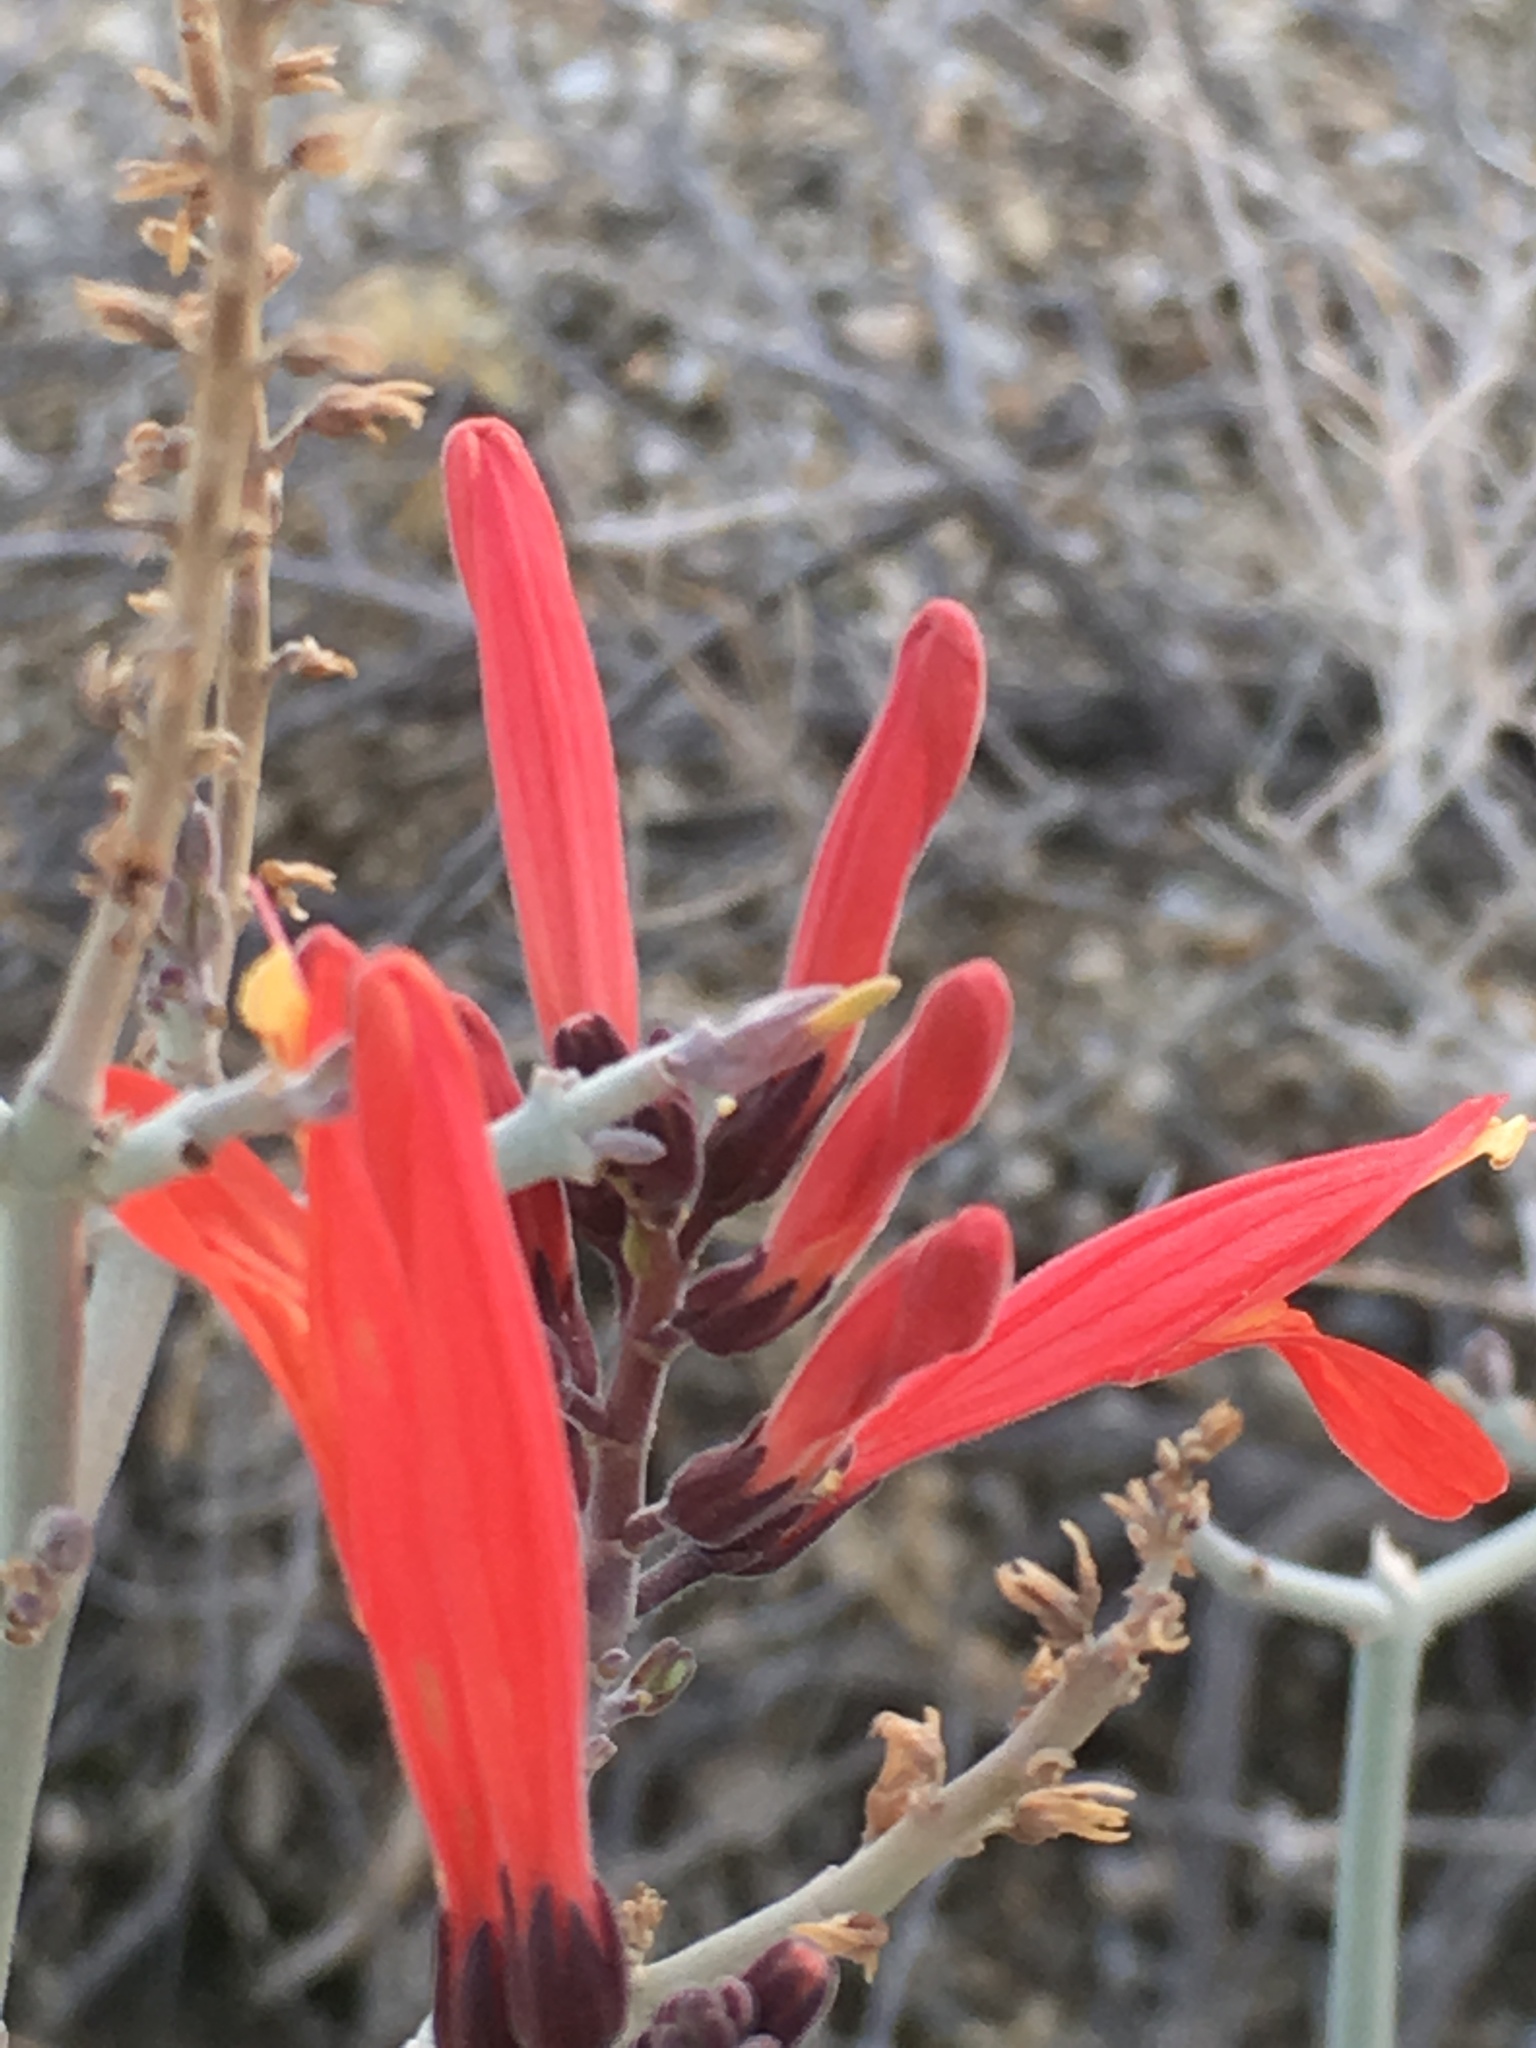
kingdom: Plantae
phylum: Tracheophyta
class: Magnoliopsida
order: Lamiales
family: Acanthaceae
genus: Justicia
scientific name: Justicia californica
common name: Chuparosa-honeysuckle
